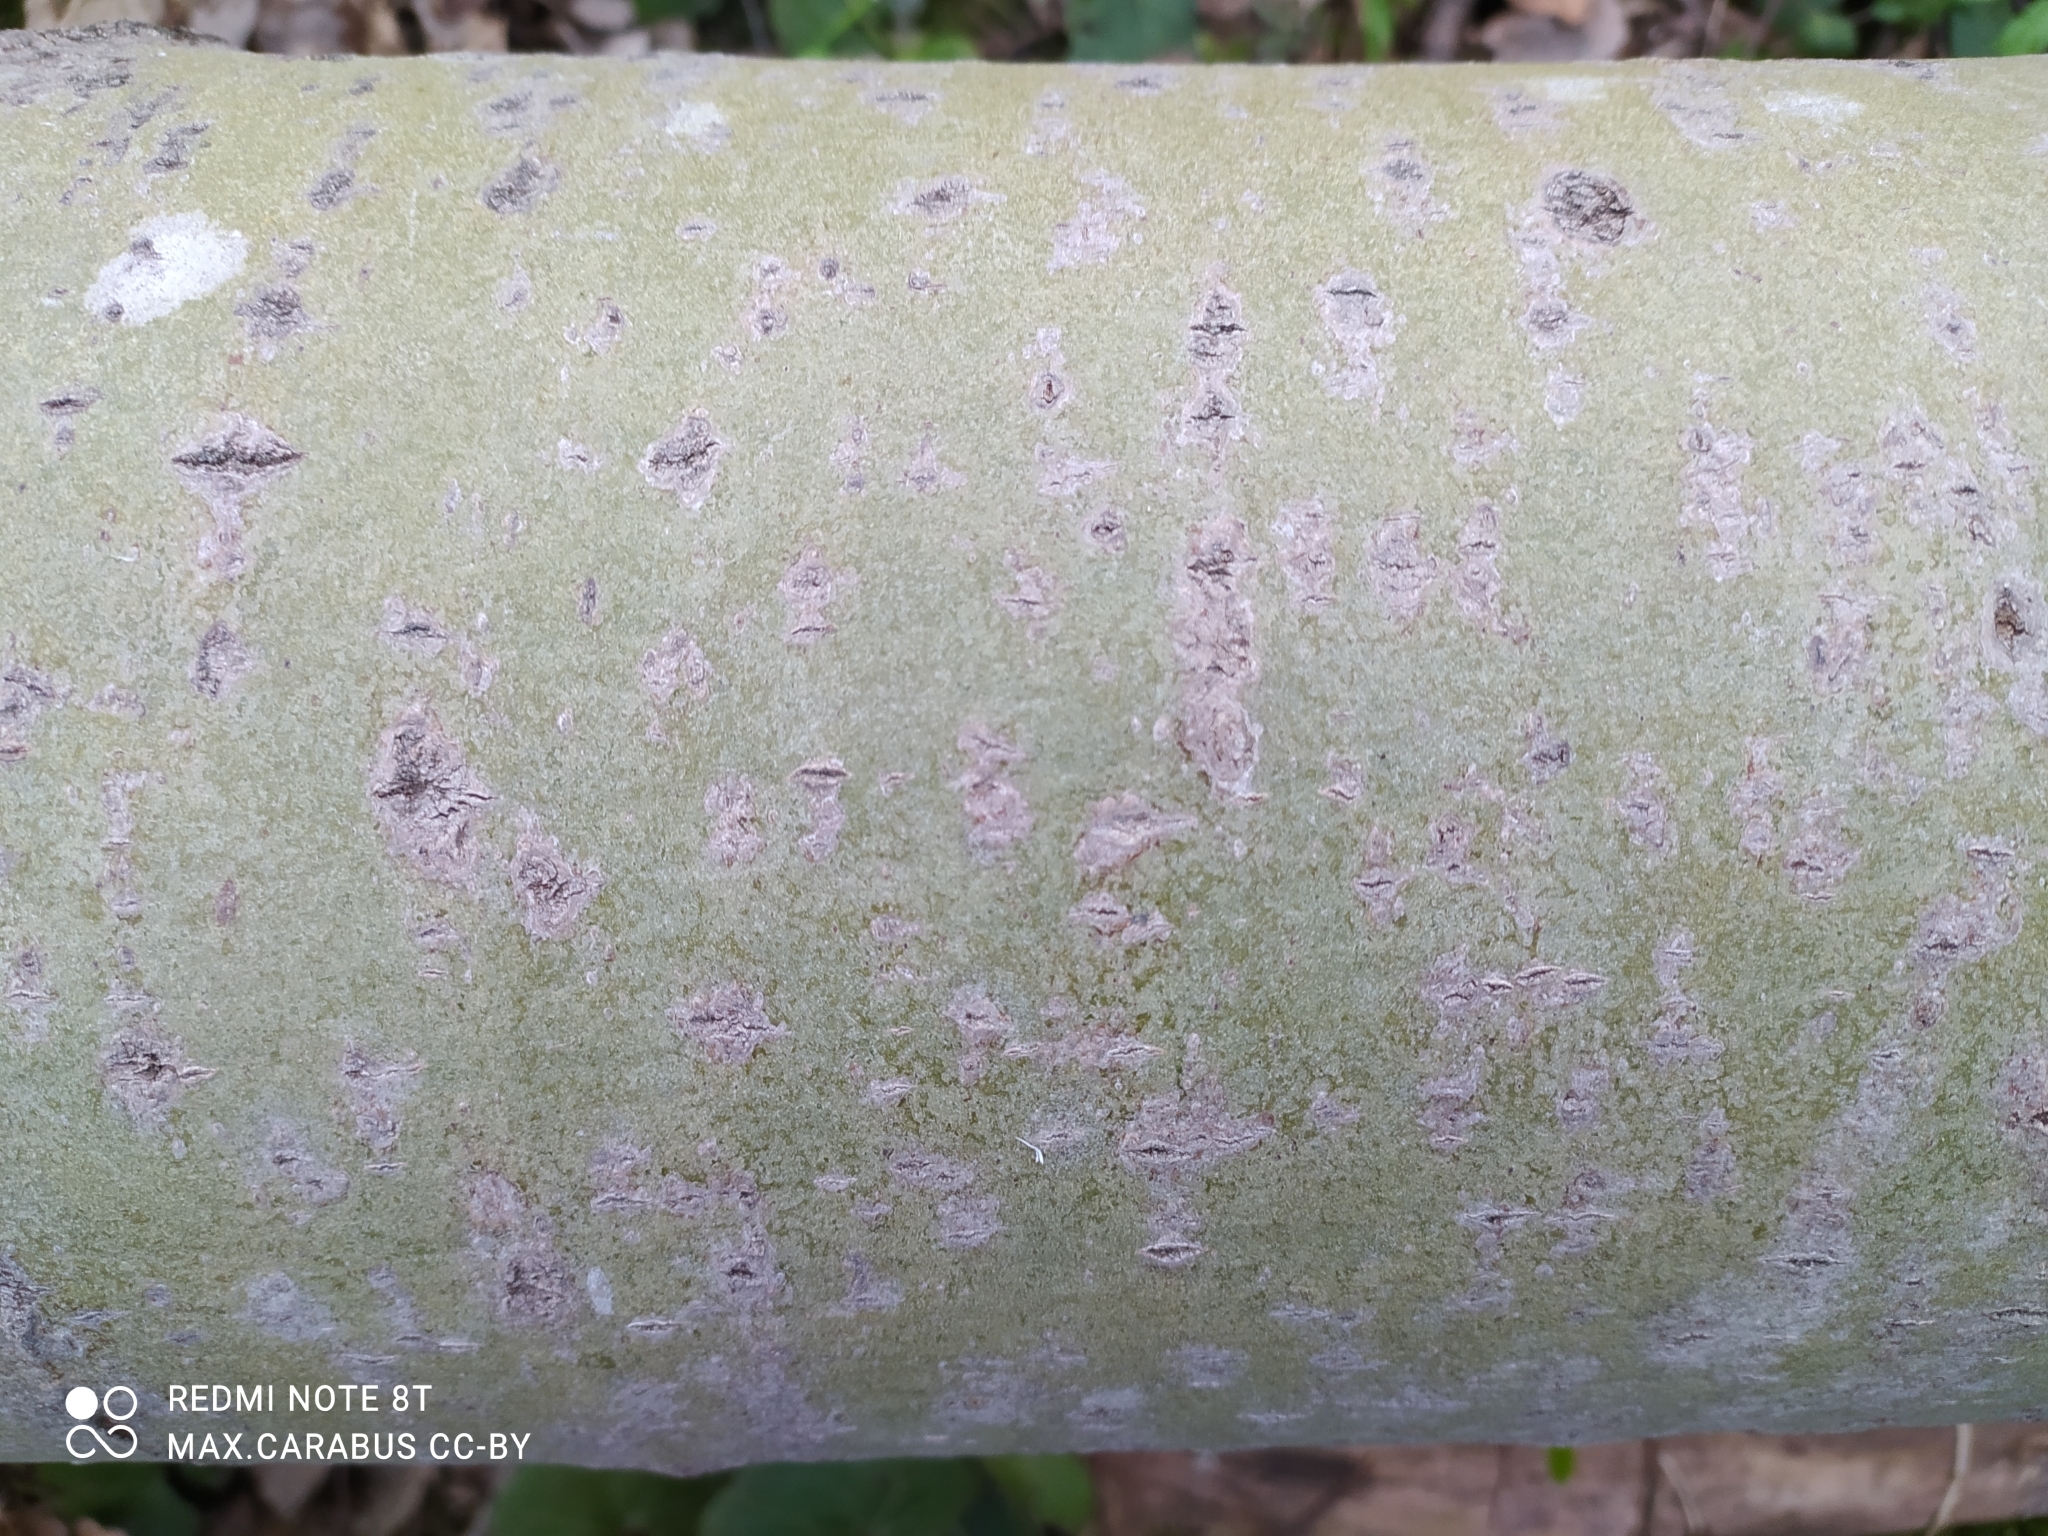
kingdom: Plantae
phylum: Tracheophyta
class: Magnoliopsida
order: Malpighiales
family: Salicaceae
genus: Populus
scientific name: Populus tremula
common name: European aspen
